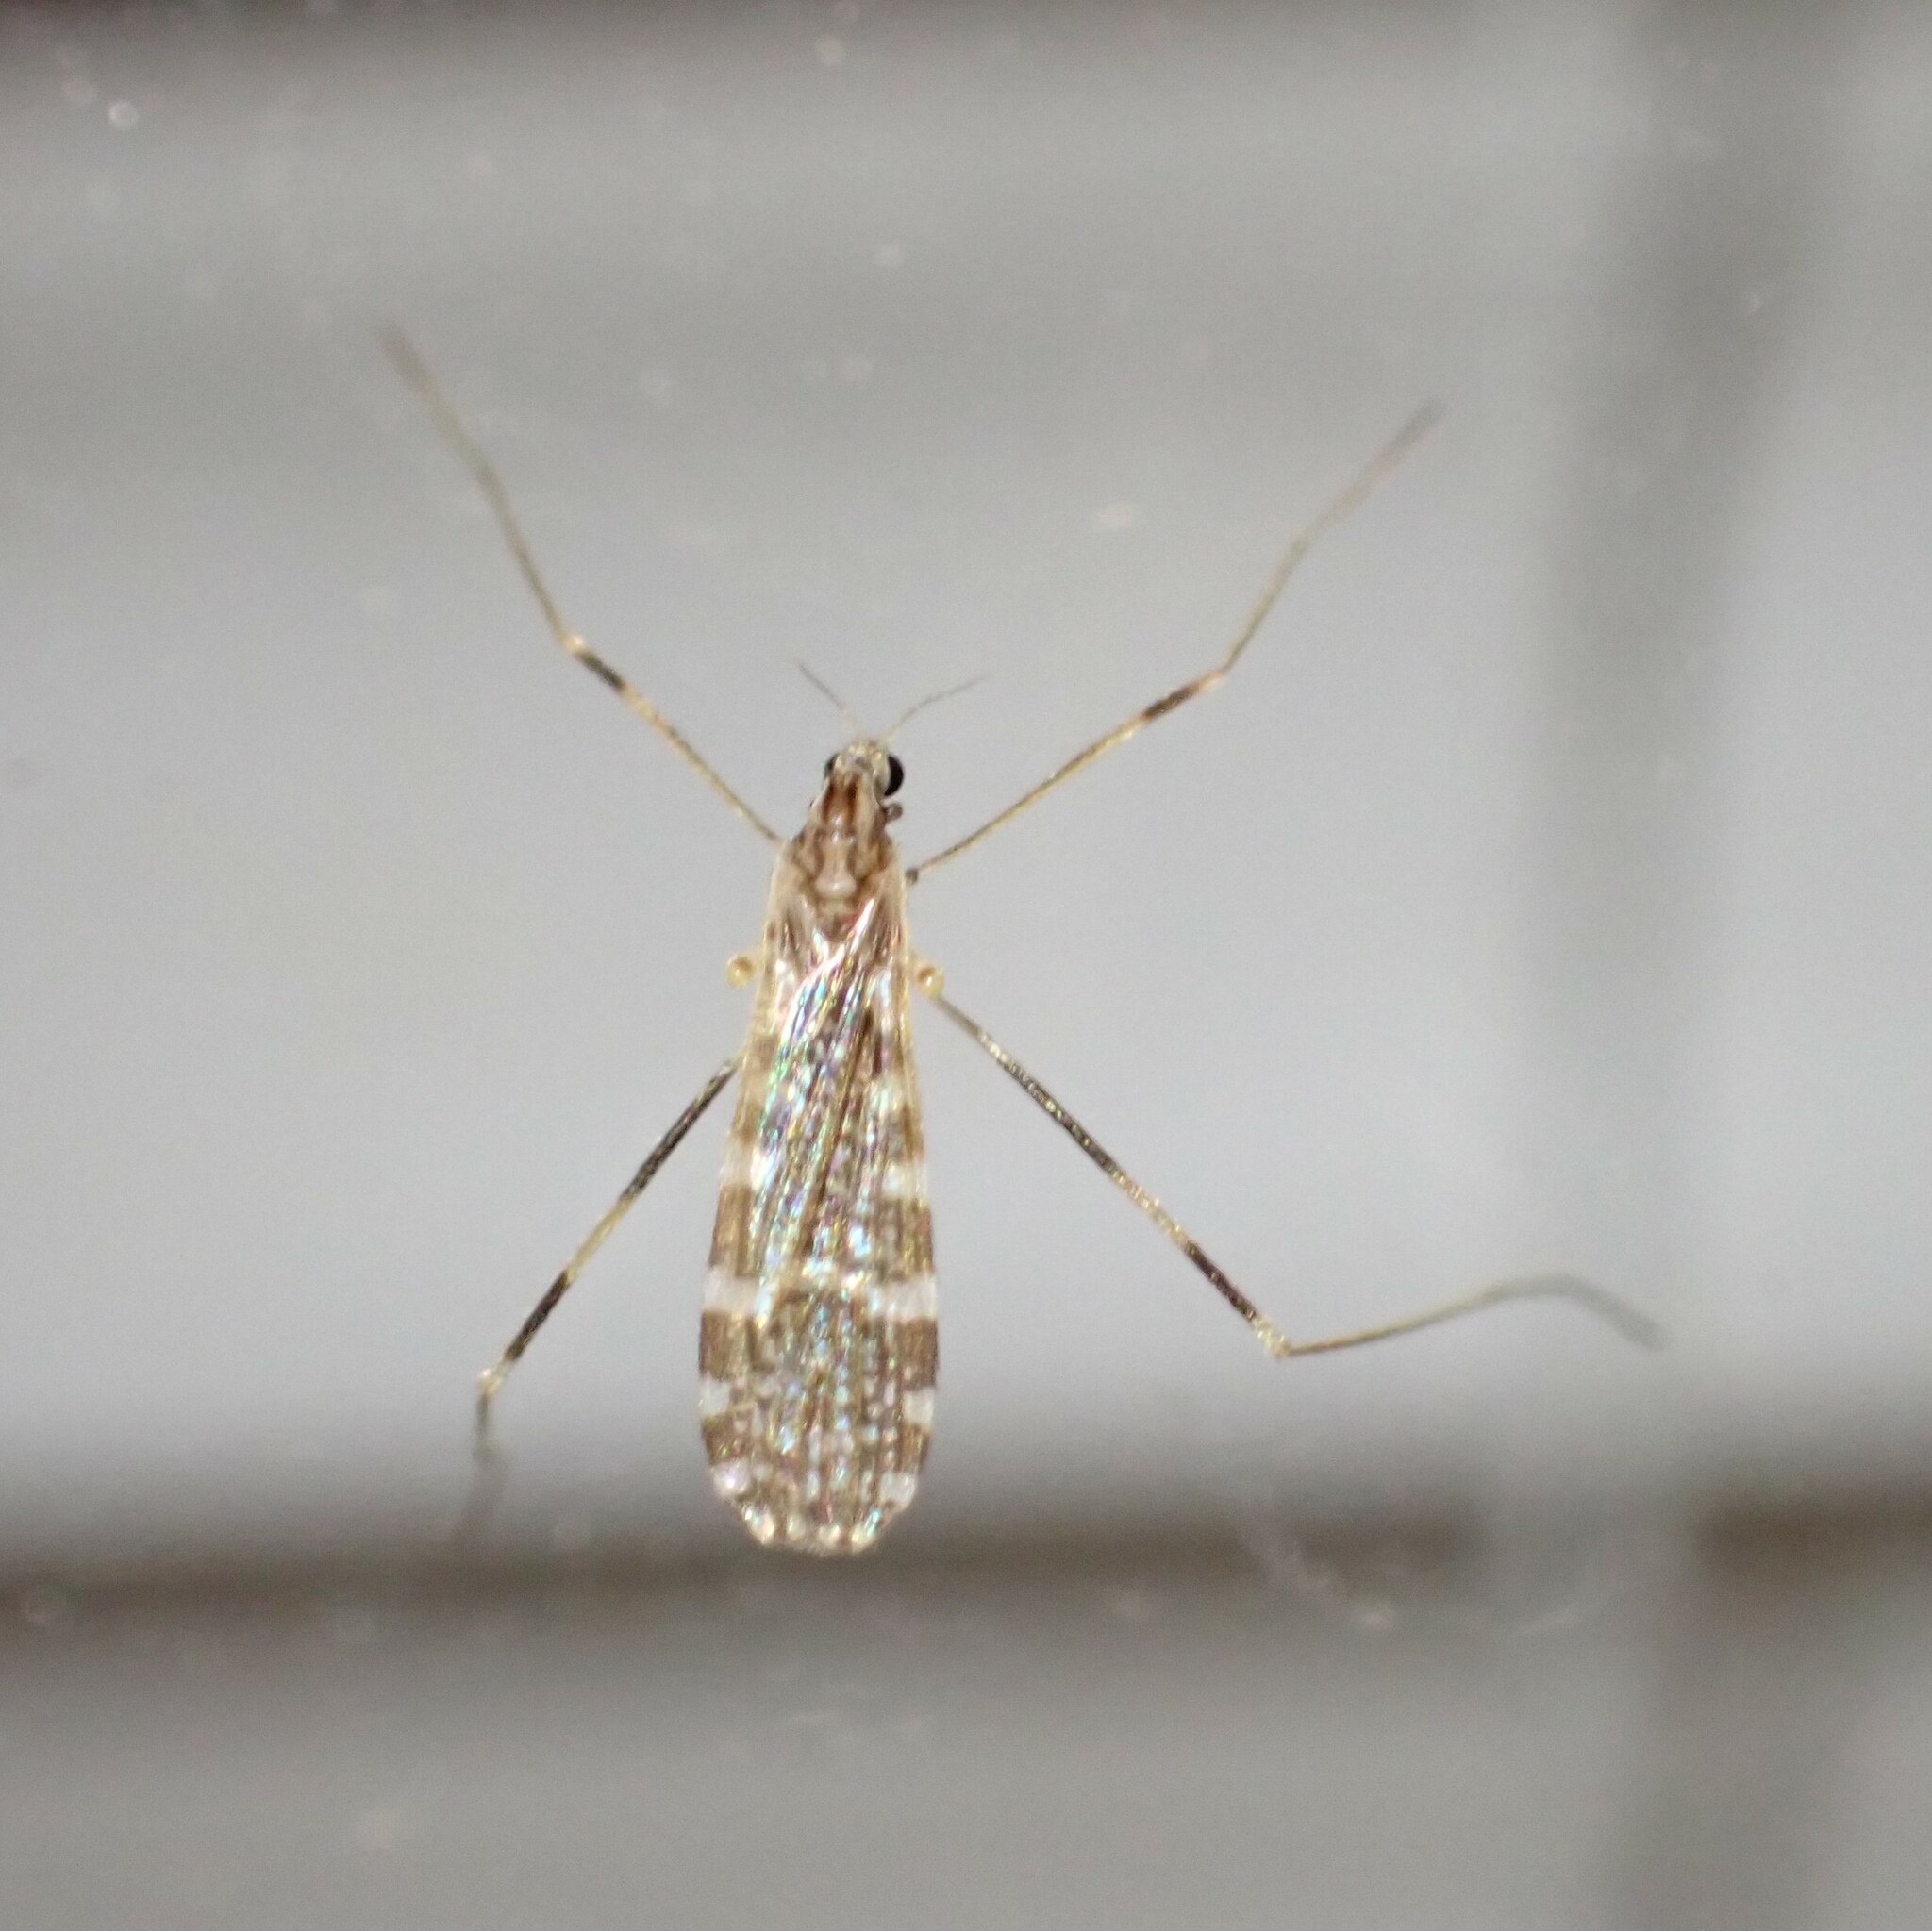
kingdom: Animalia
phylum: Arthropoda
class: Insecta
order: Diptera
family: Limoniidae
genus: Erioptera
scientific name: Erioptera caliptera
